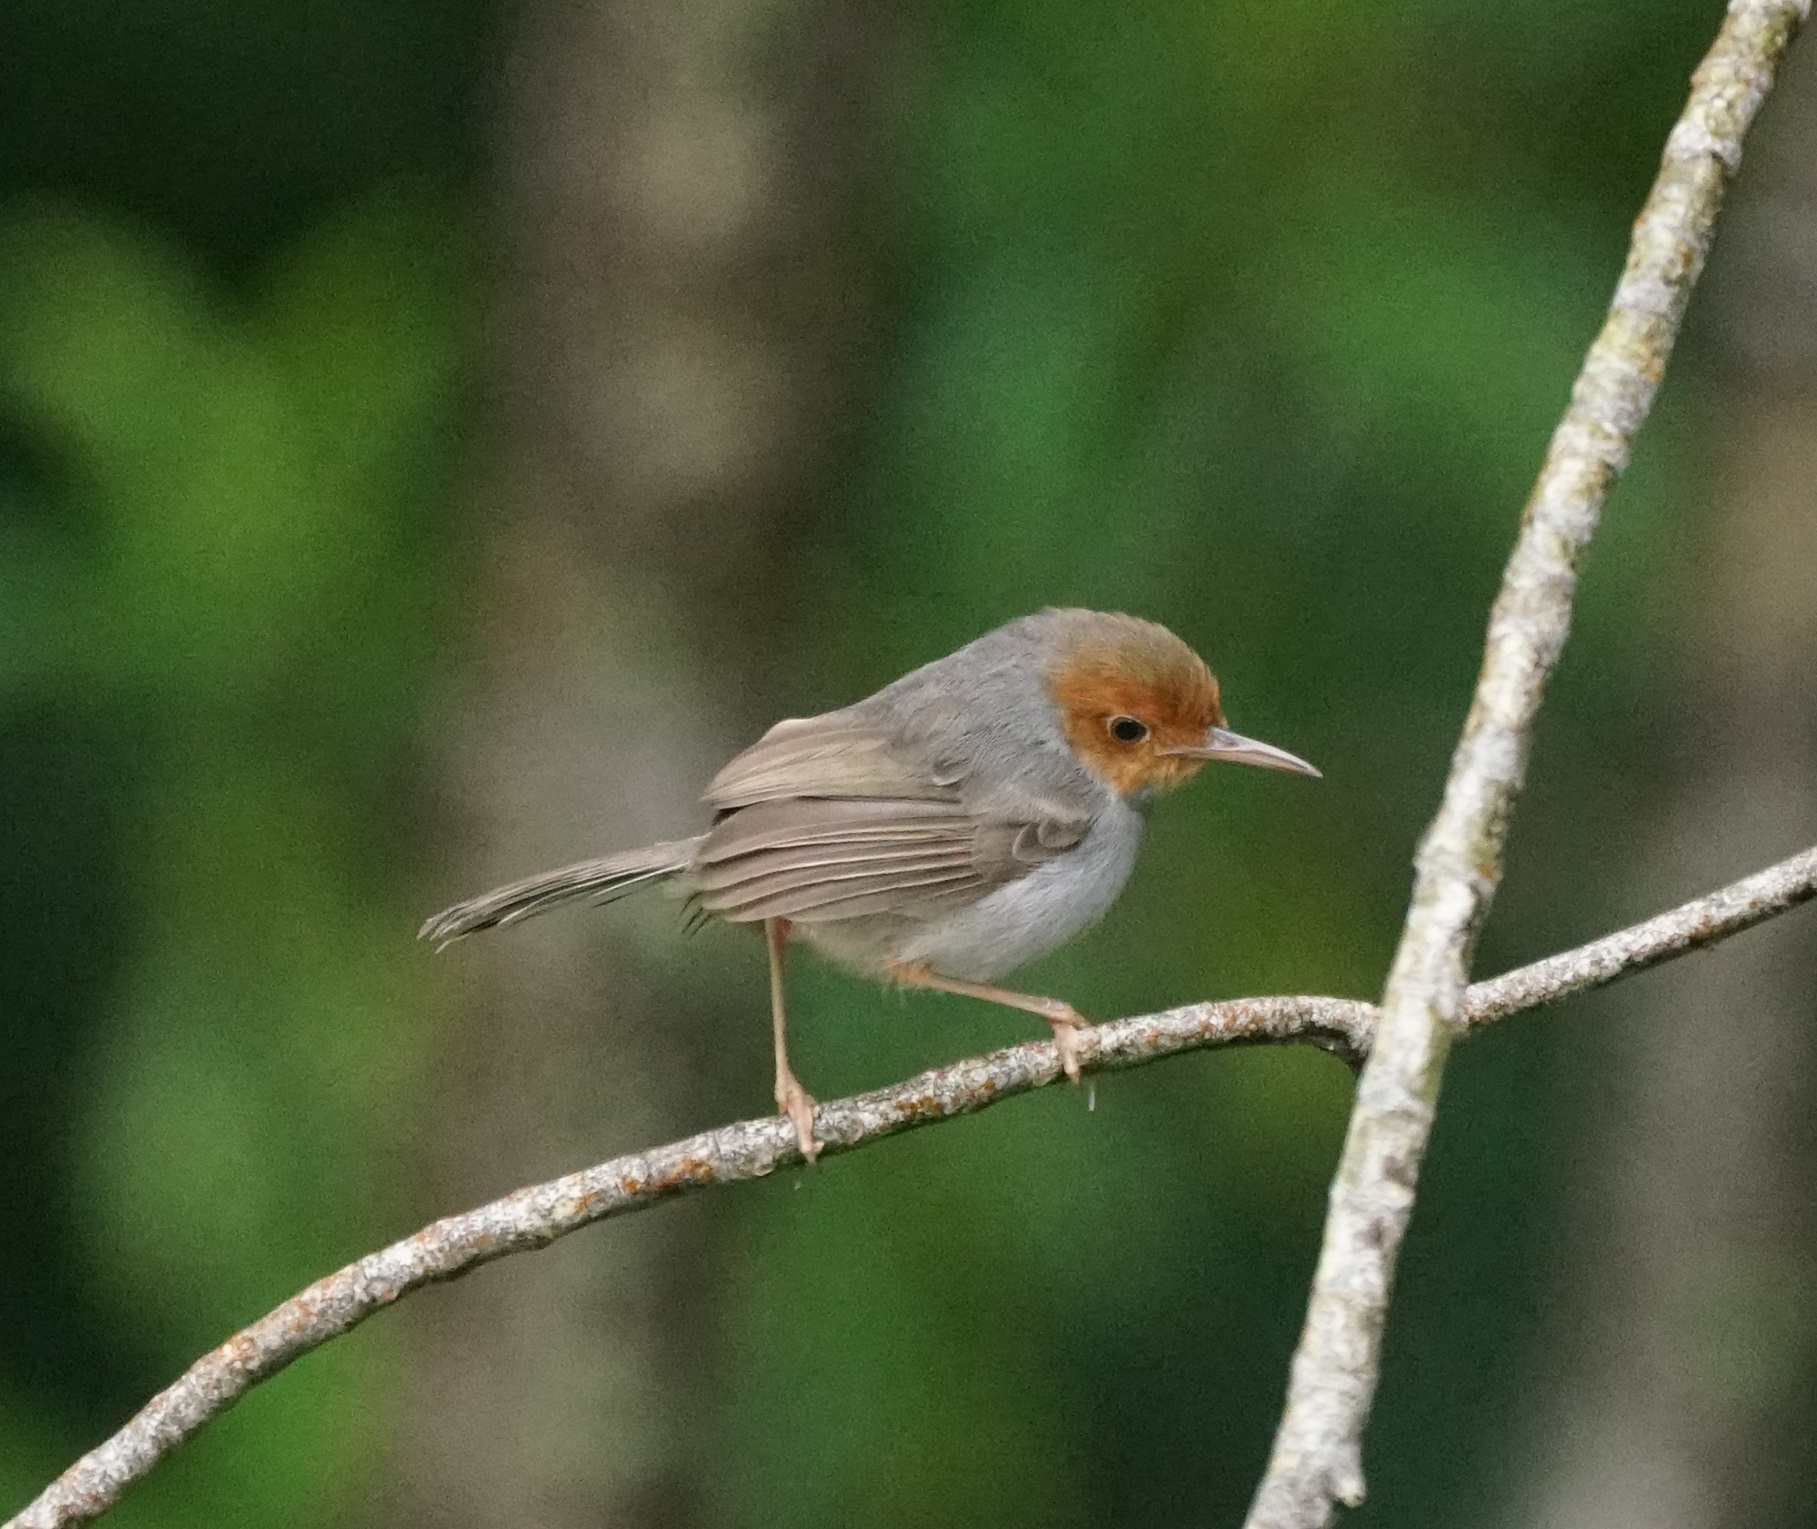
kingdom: Animalia
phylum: Chordata
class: Aves
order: Passeriformes
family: Cisticolidae
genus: Orthotomus
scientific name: Orthotomus ruficeps
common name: Ashy tailorbird
